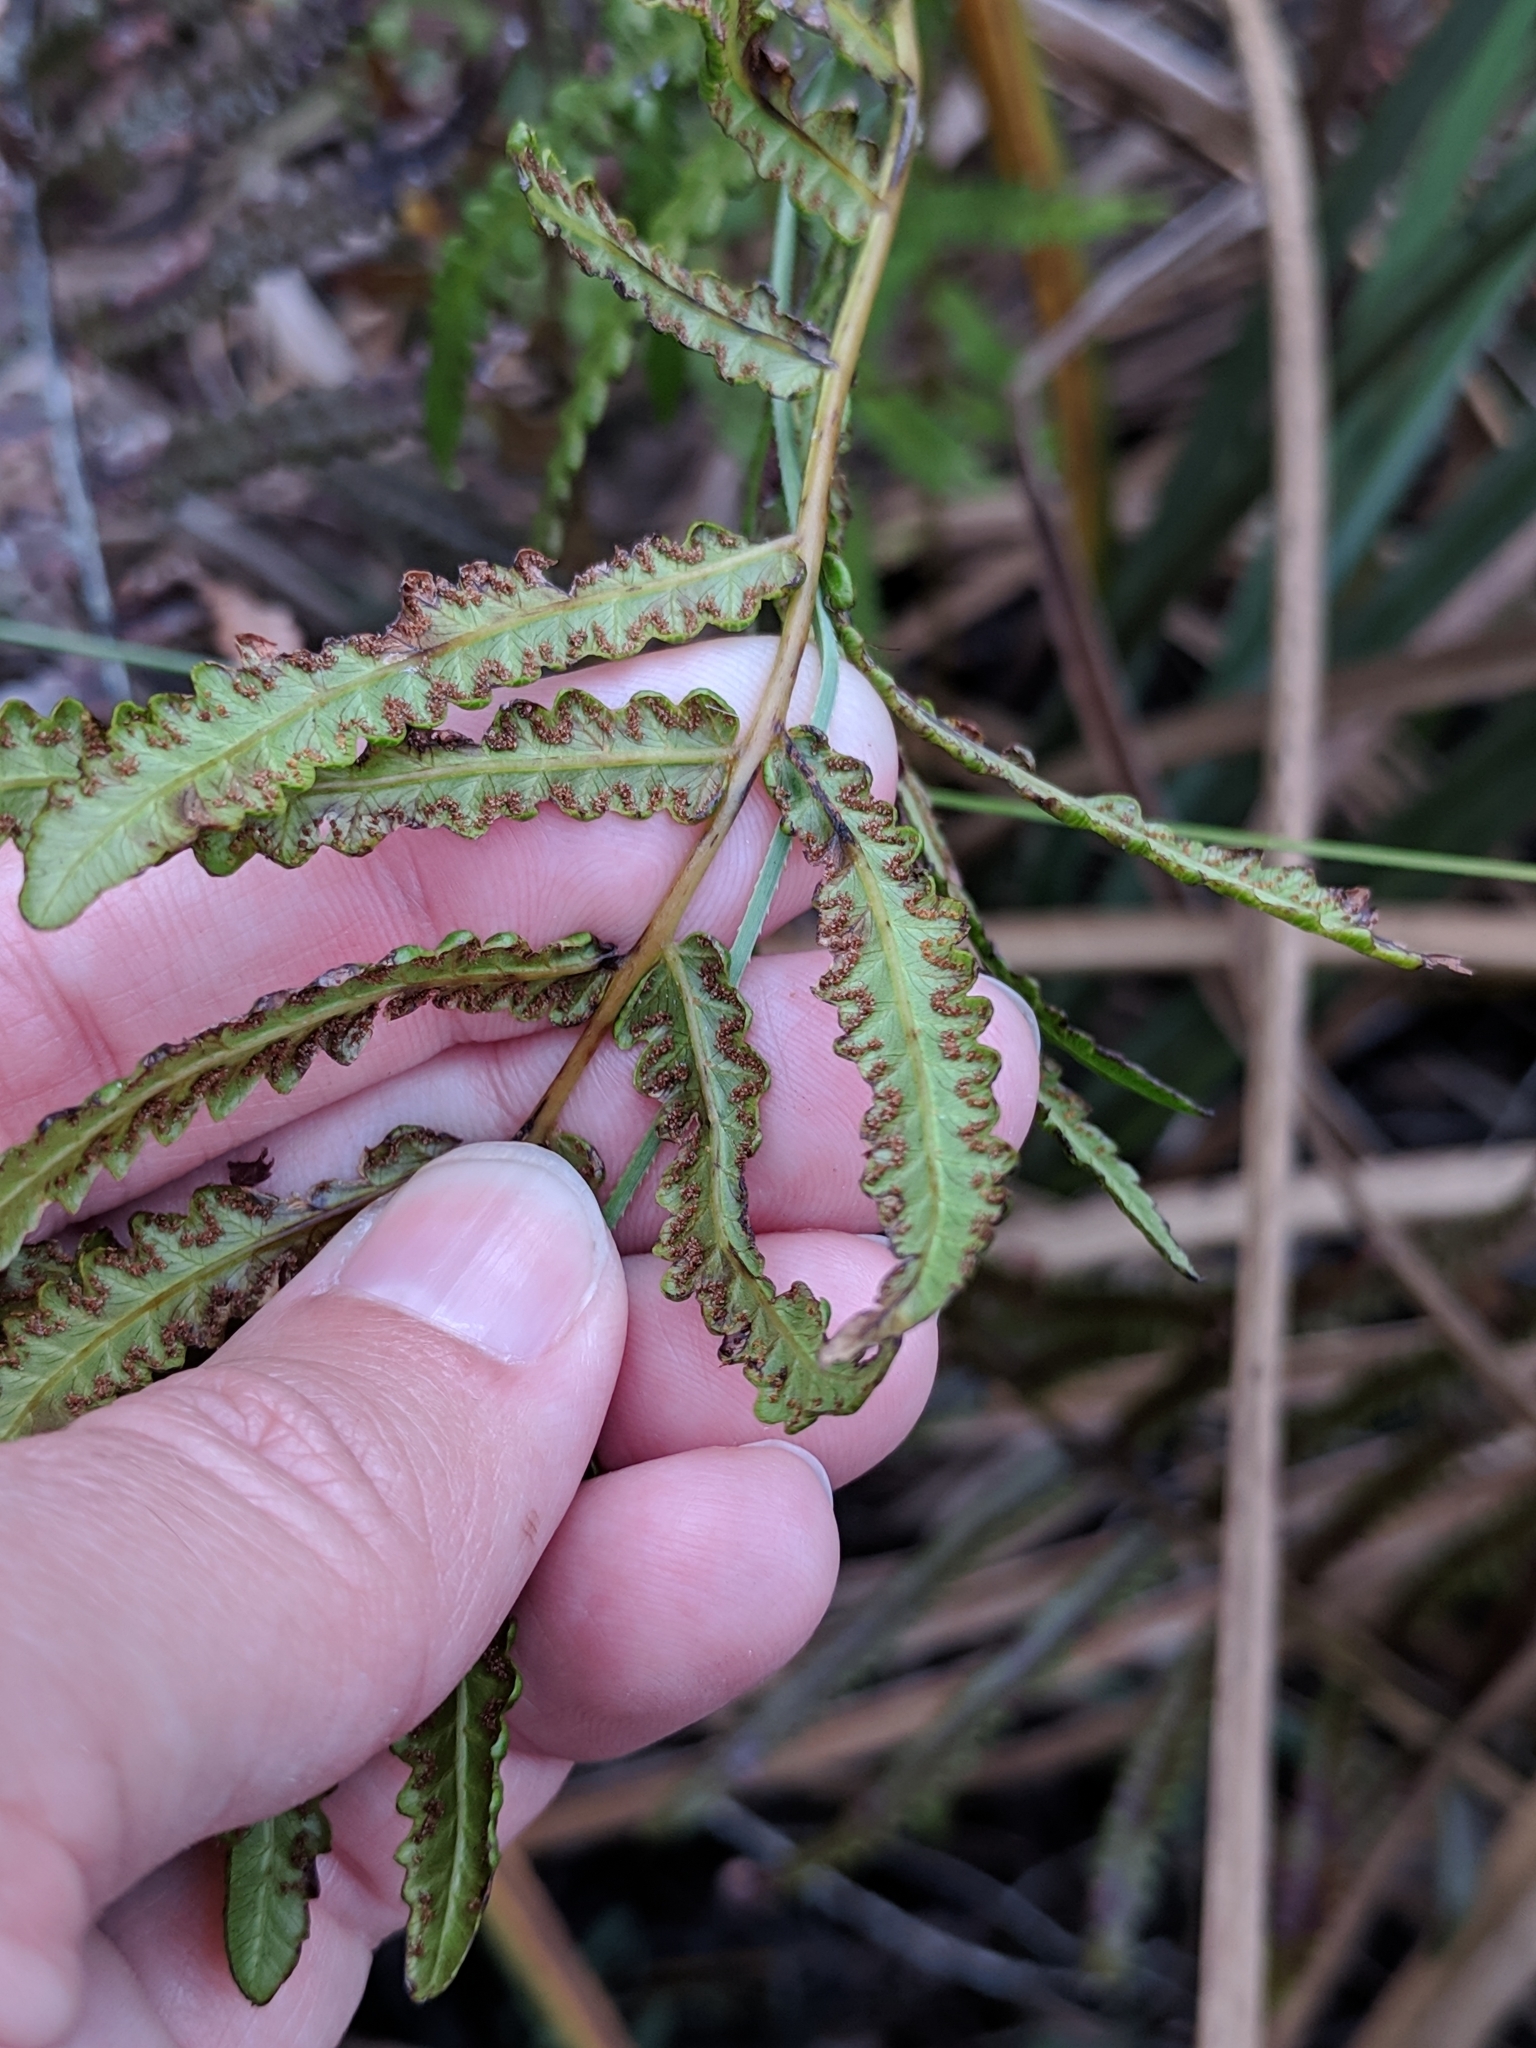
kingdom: Plantae
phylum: Tracheophyta
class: Polypodiopsida
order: Polypodiales
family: Thelypteridaceae
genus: Cyclosorus
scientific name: Cyclosorus interruptus
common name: Neke fern
